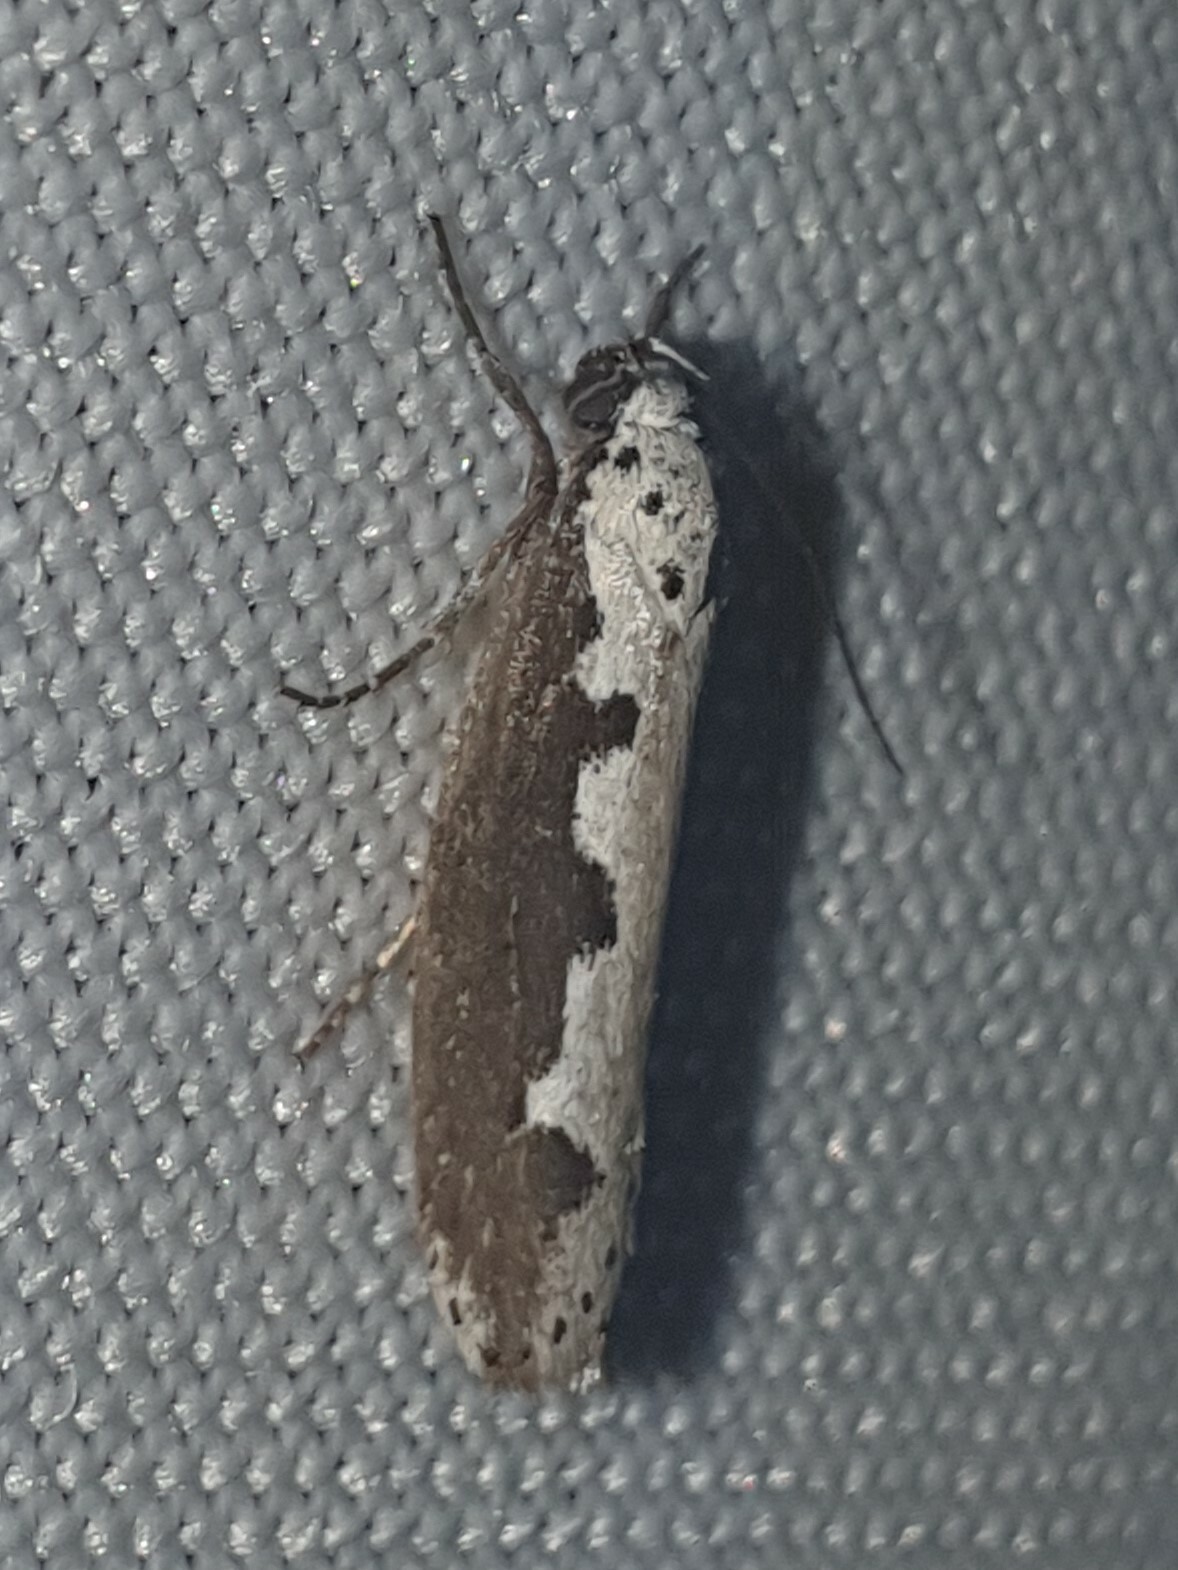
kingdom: Animalia
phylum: Arthropoda
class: Insecta
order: Lepidoptera
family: Ethmiidae
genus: Ethmia
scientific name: Ethmia bipunctella
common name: Bordered ermel
